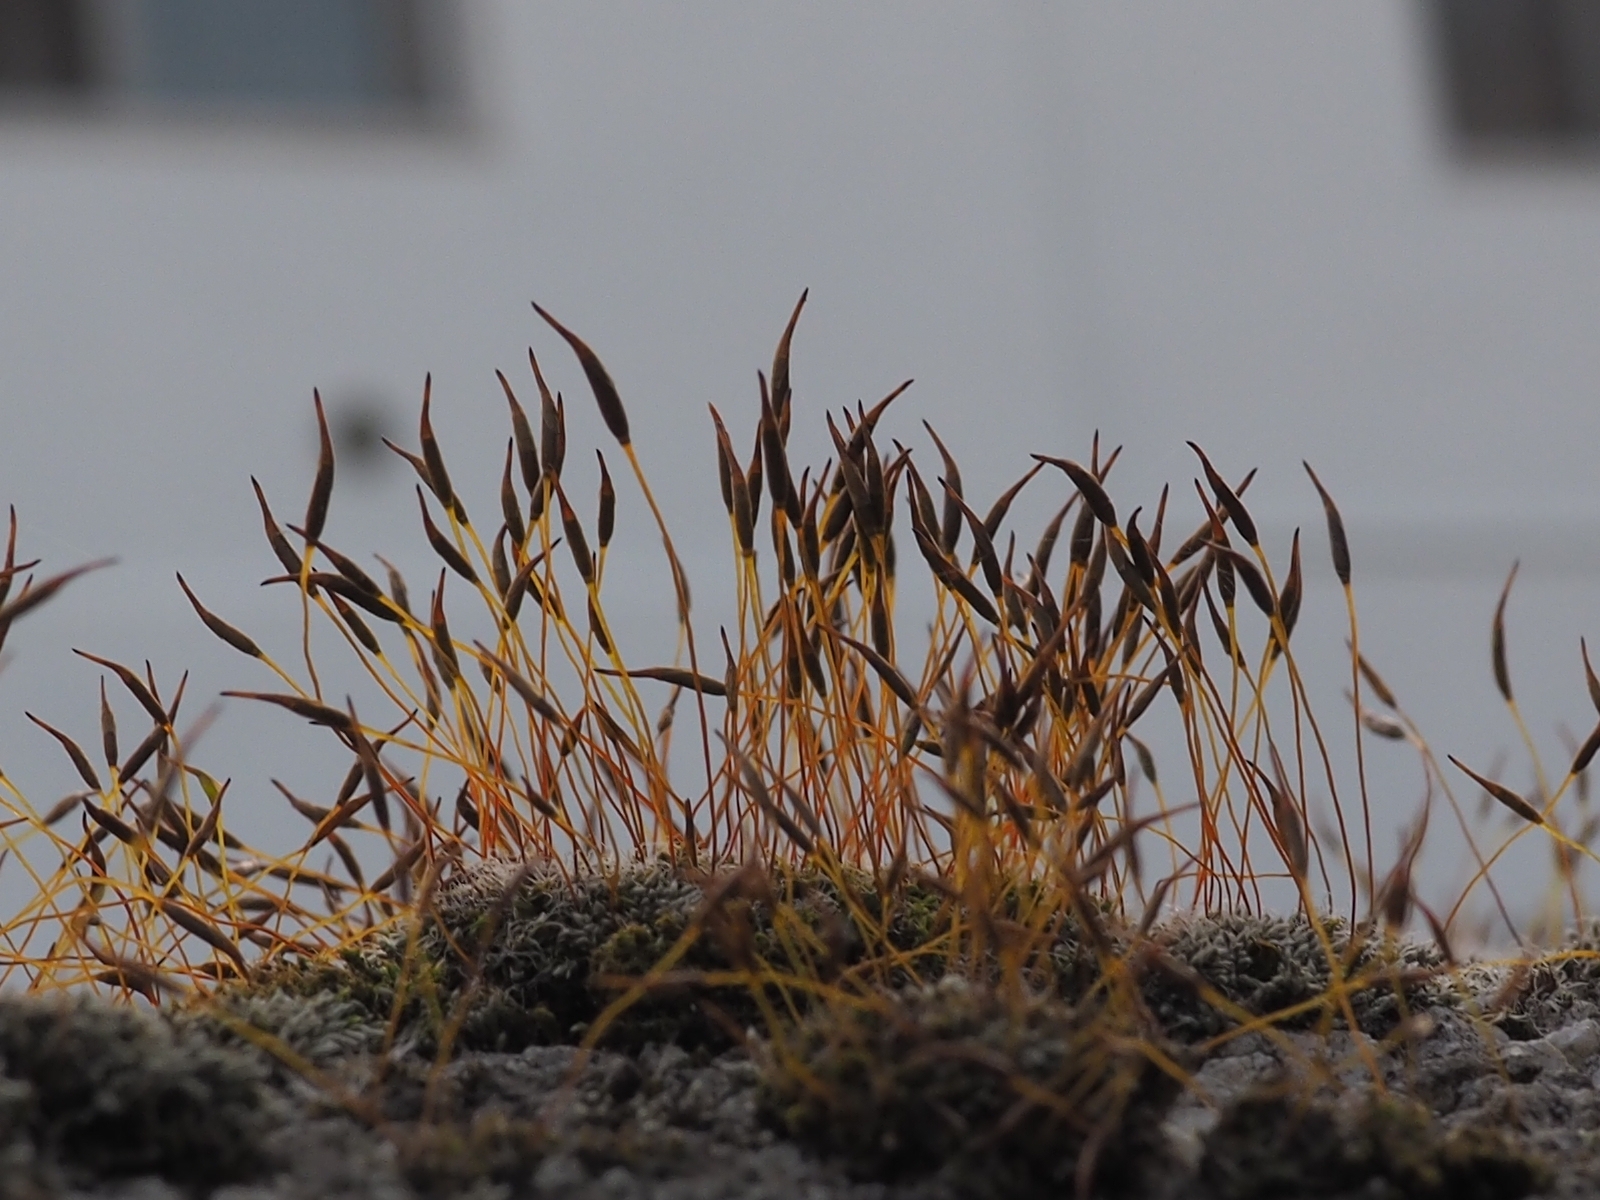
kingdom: Plantae
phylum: Bryophyta
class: Bryopsida
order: Pottiales
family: Pottiaceae
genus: Tortula
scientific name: Tortula muralis
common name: Wall screw-moss
